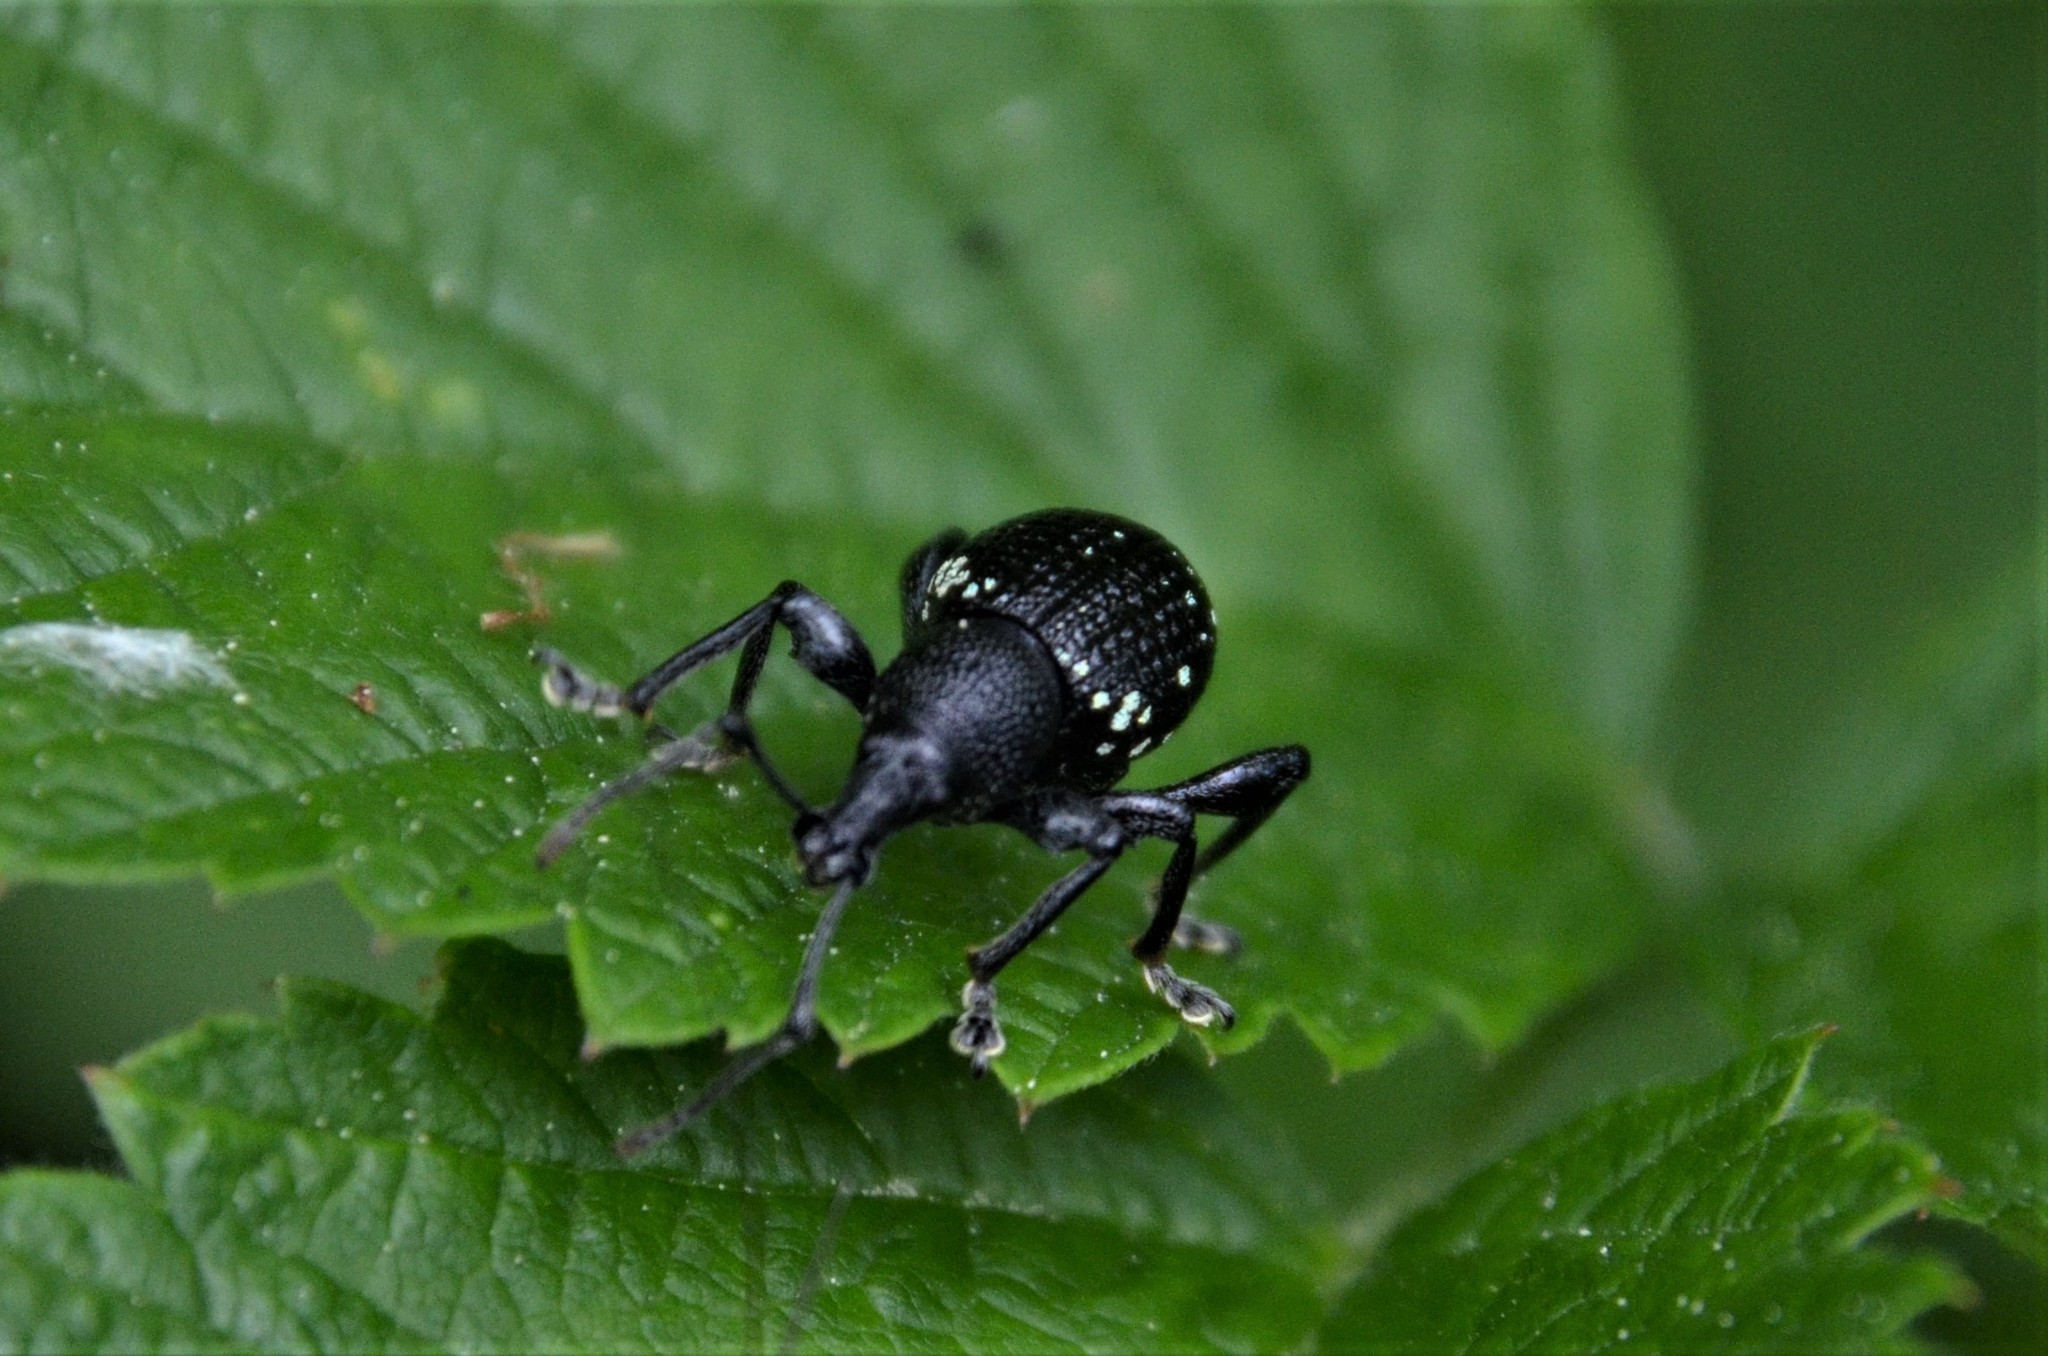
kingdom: Animalia
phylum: Arthropoda
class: Insecta
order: Coleoptera
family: Curculionidae
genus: Otiorhynchus
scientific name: Otiorhynchus gemmatus
